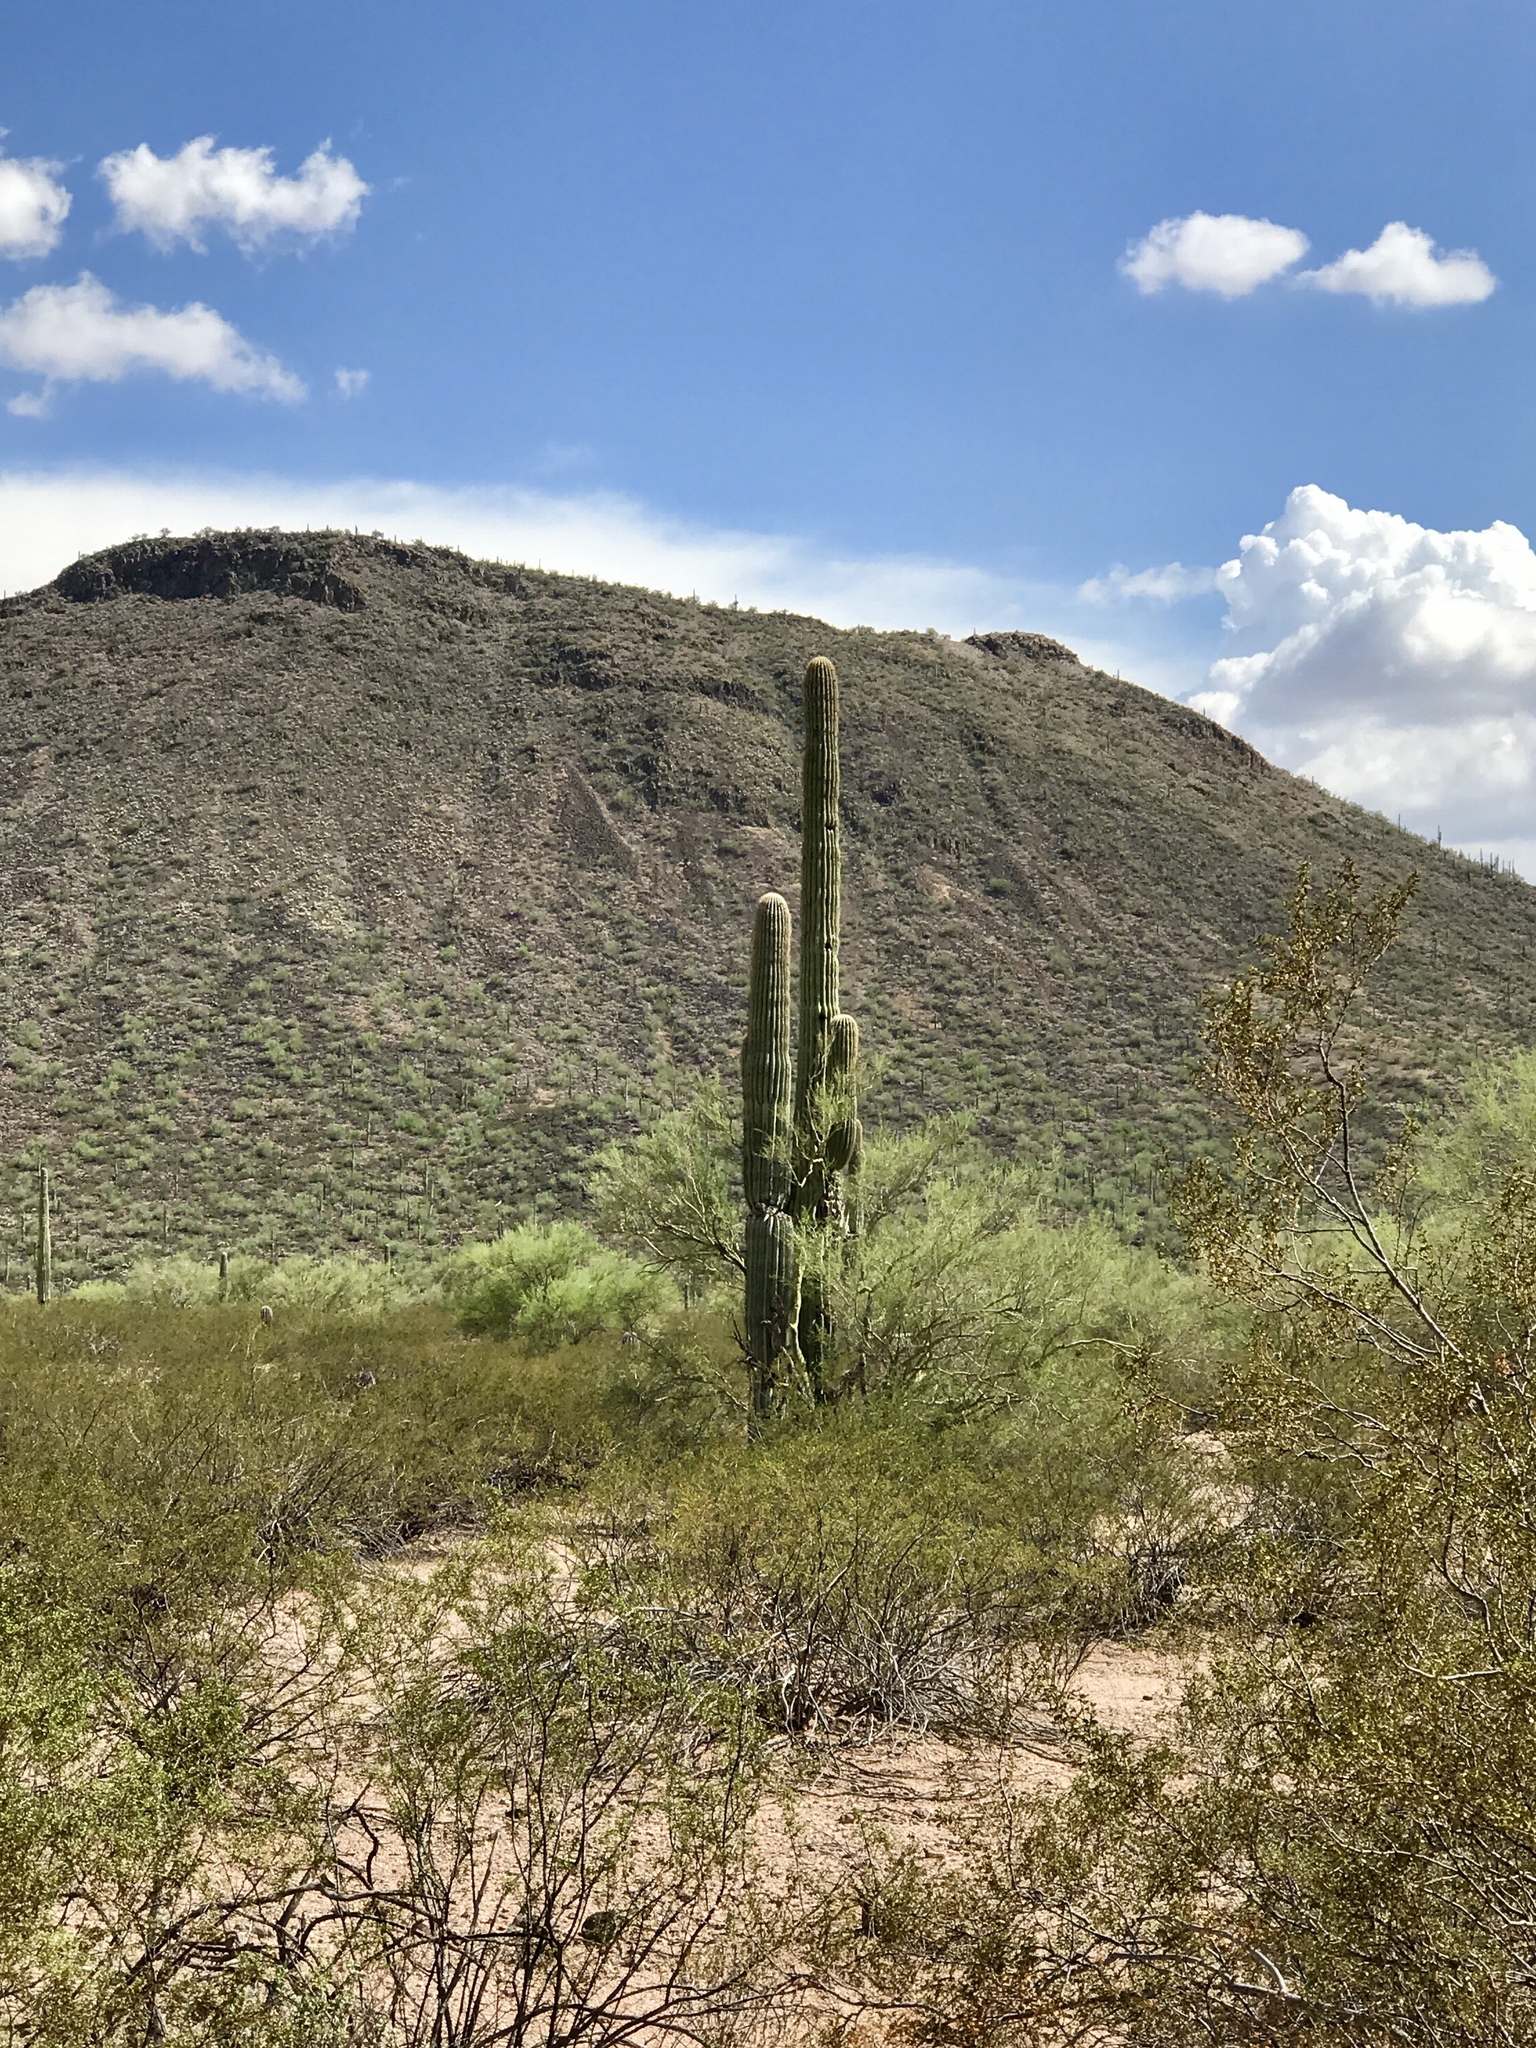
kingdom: Plantae
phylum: Tracheophyta
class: Magnoliopsida
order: Caryophyllales
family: Cactaceae
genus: Carnegiea
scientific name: Carnegiea gigantea
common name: Saguaro
